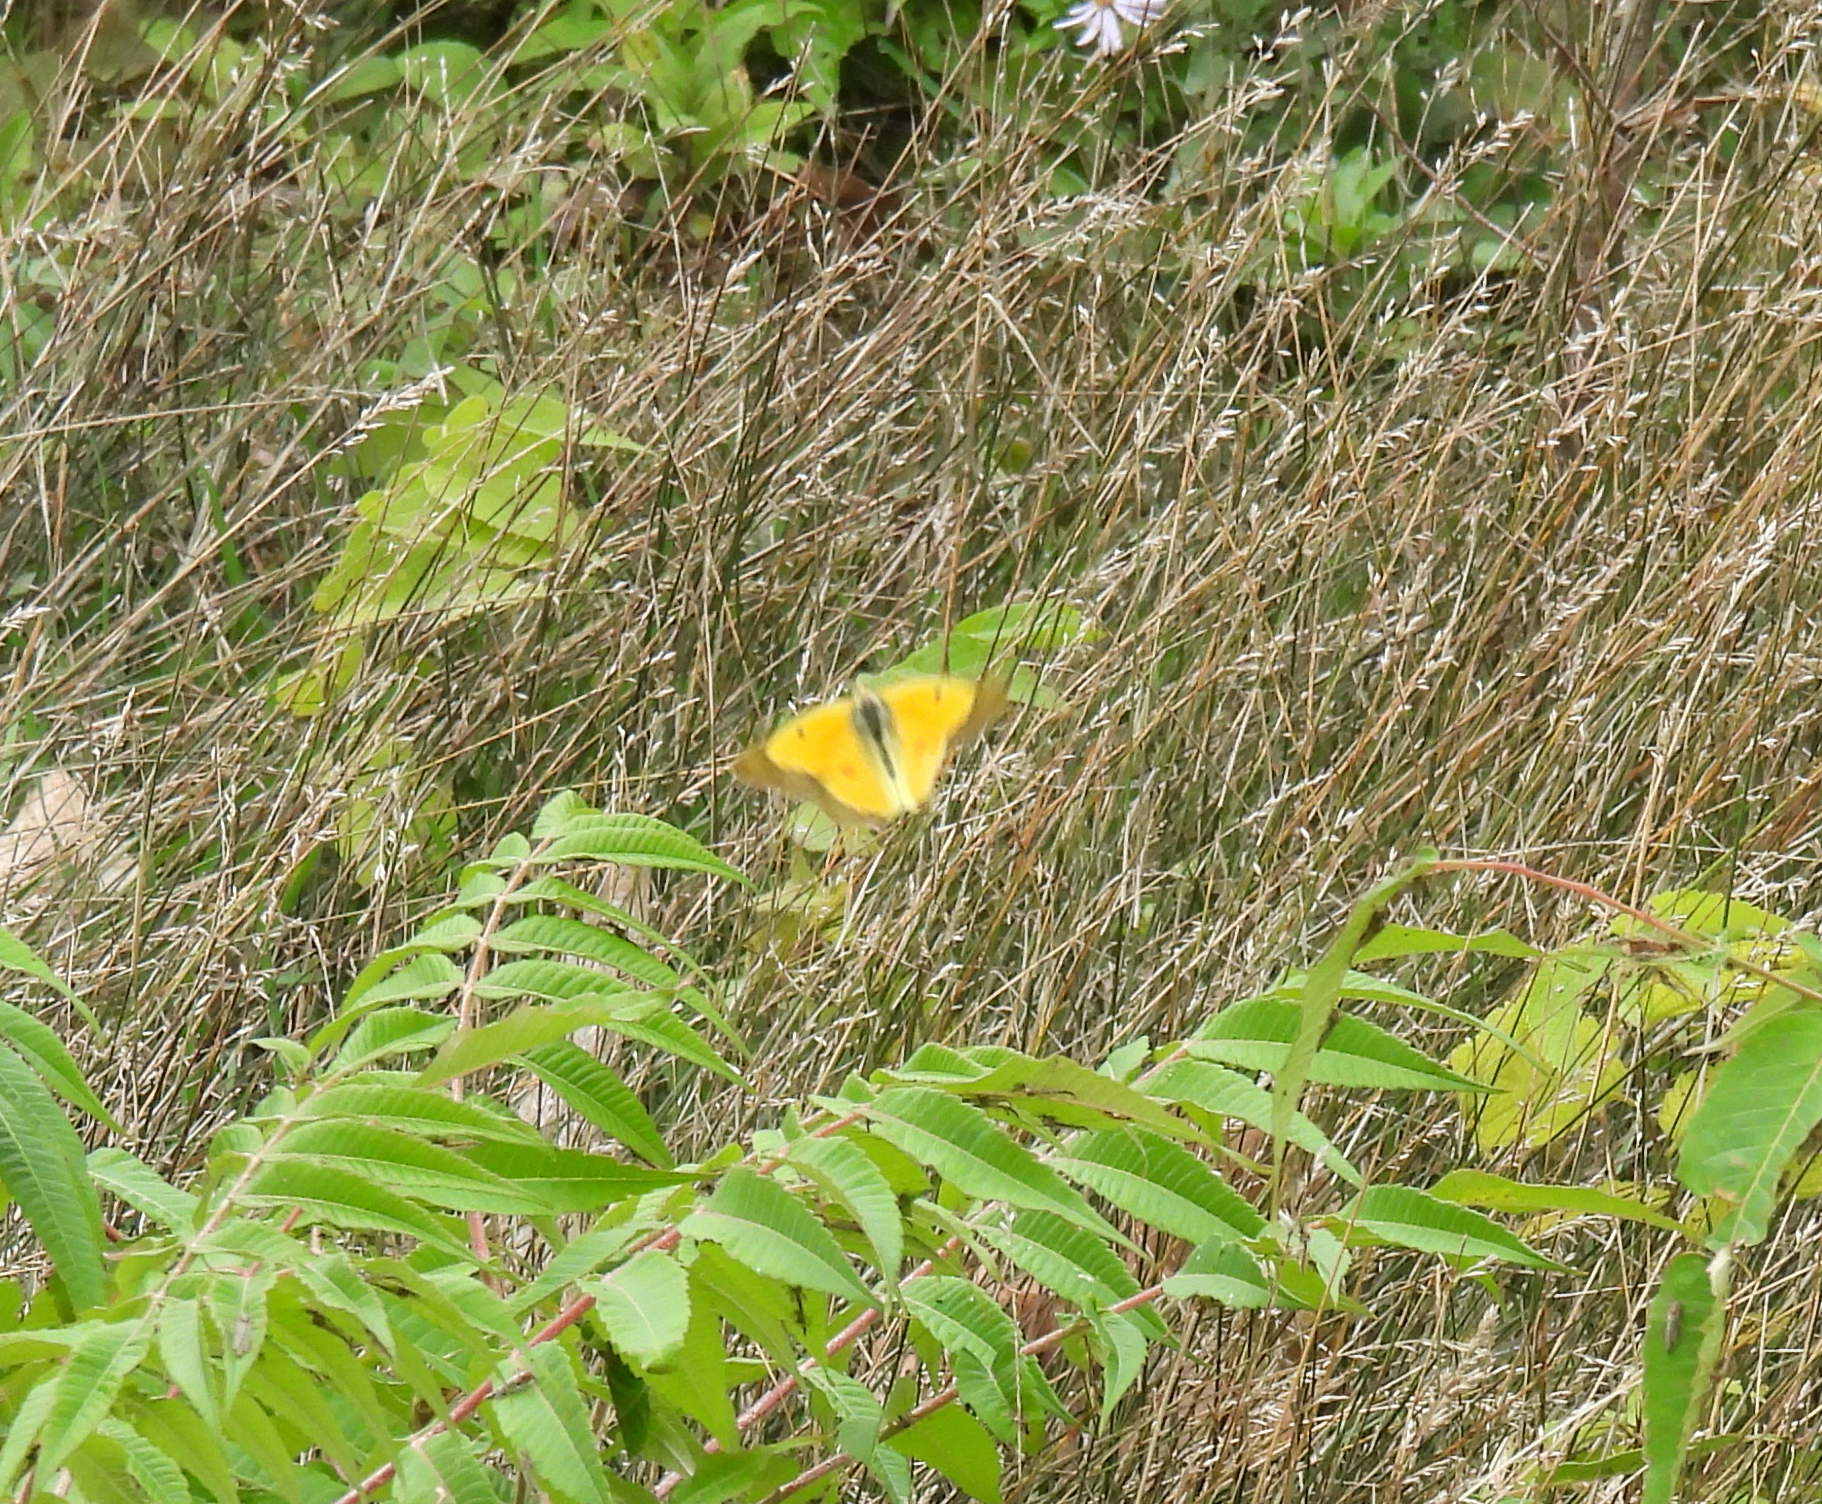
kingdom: Animalia
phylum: Arthropoda
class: Insecta
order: Lepidoptera
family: Pieridae
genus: Colias
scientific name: Colias eurytheme
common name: Alfalfa butterfly
